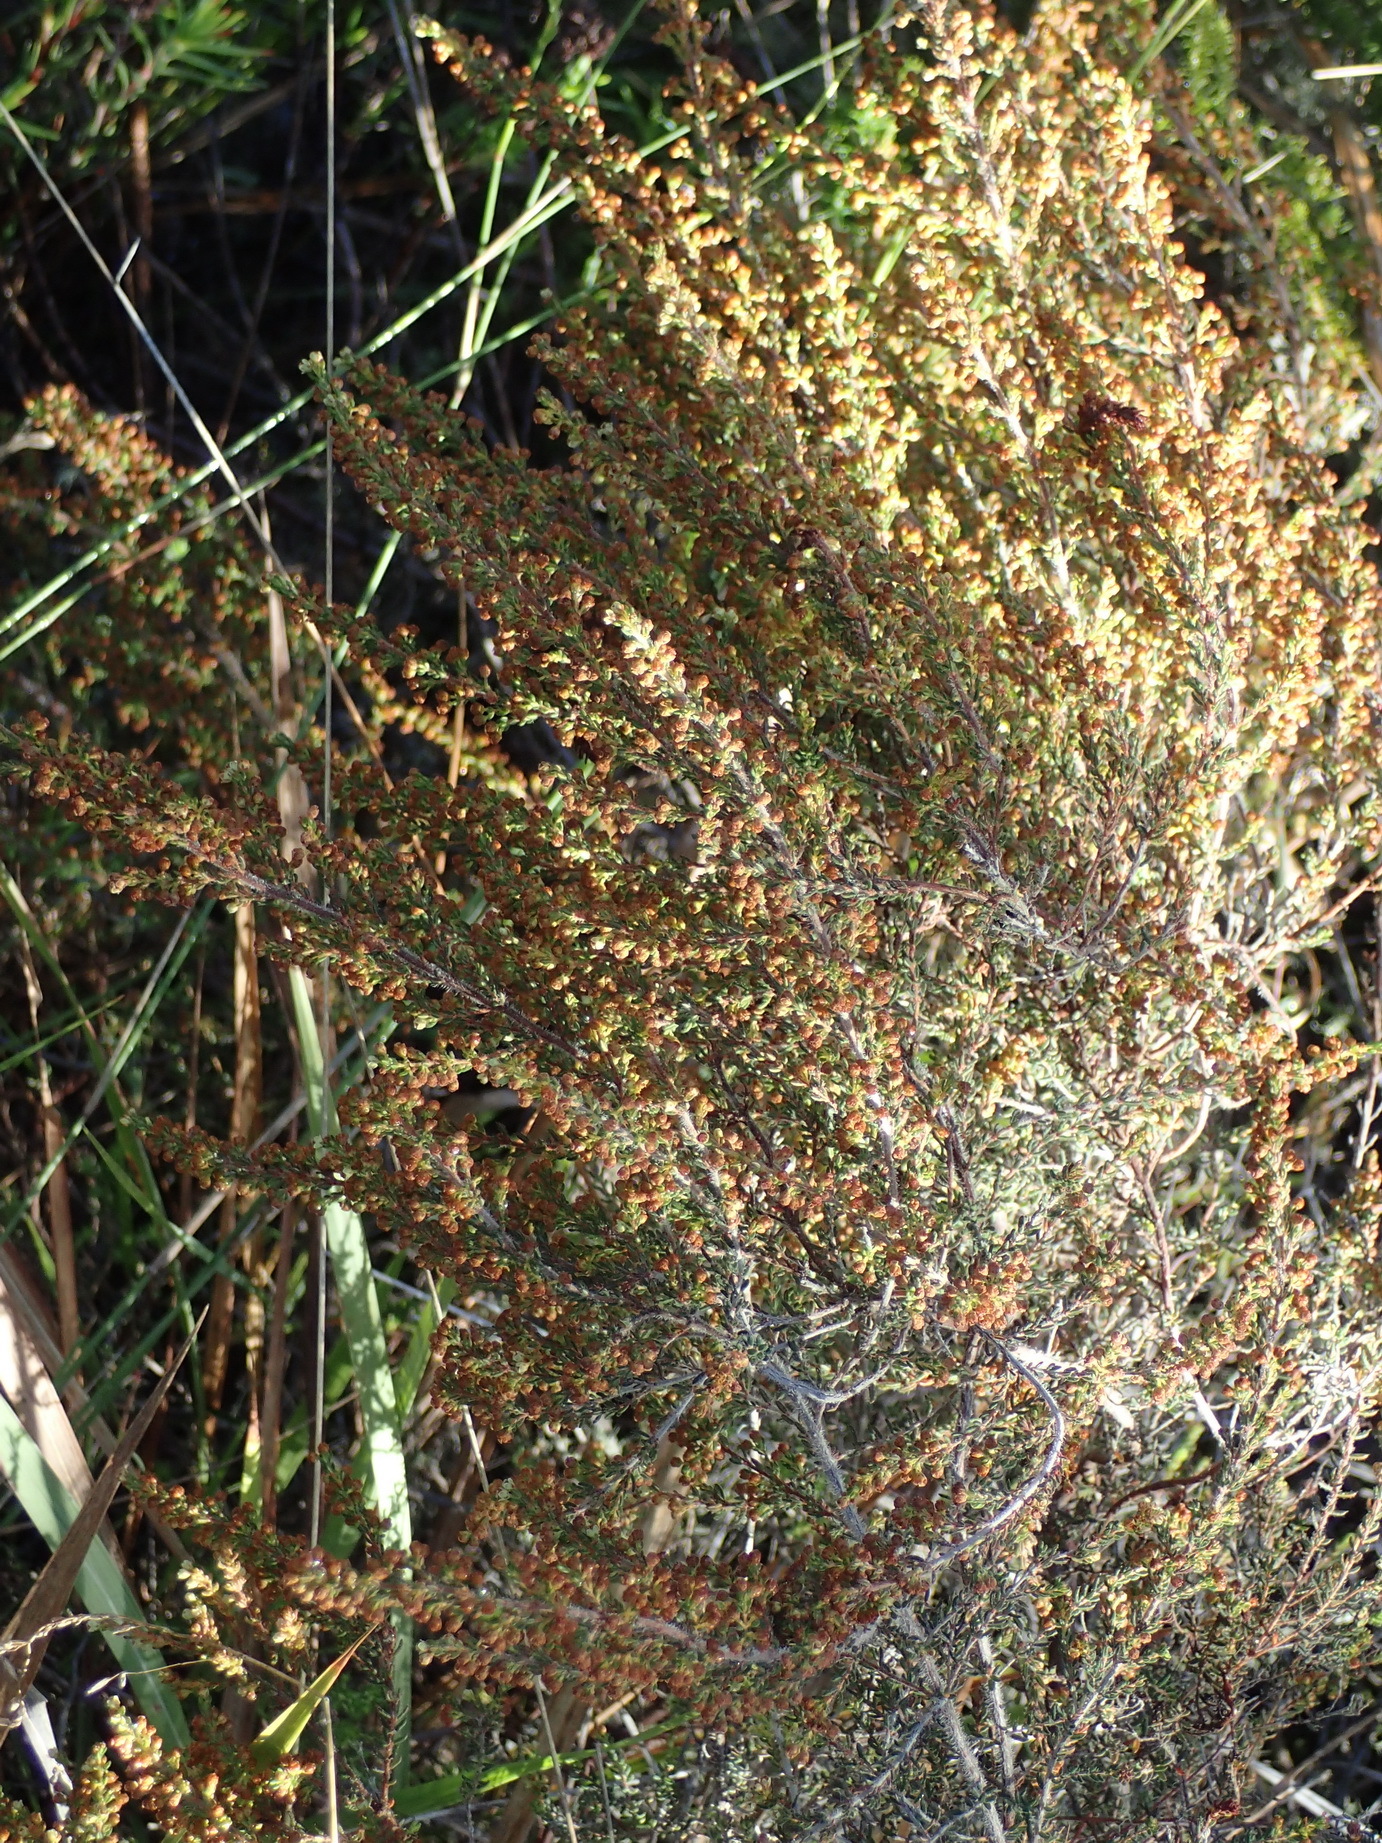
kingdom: Plantae
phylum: Tracheophyta
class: Magnoliopsida
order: Ericales
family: Ericaceae
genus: Erica
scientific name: Erica leucopelta
